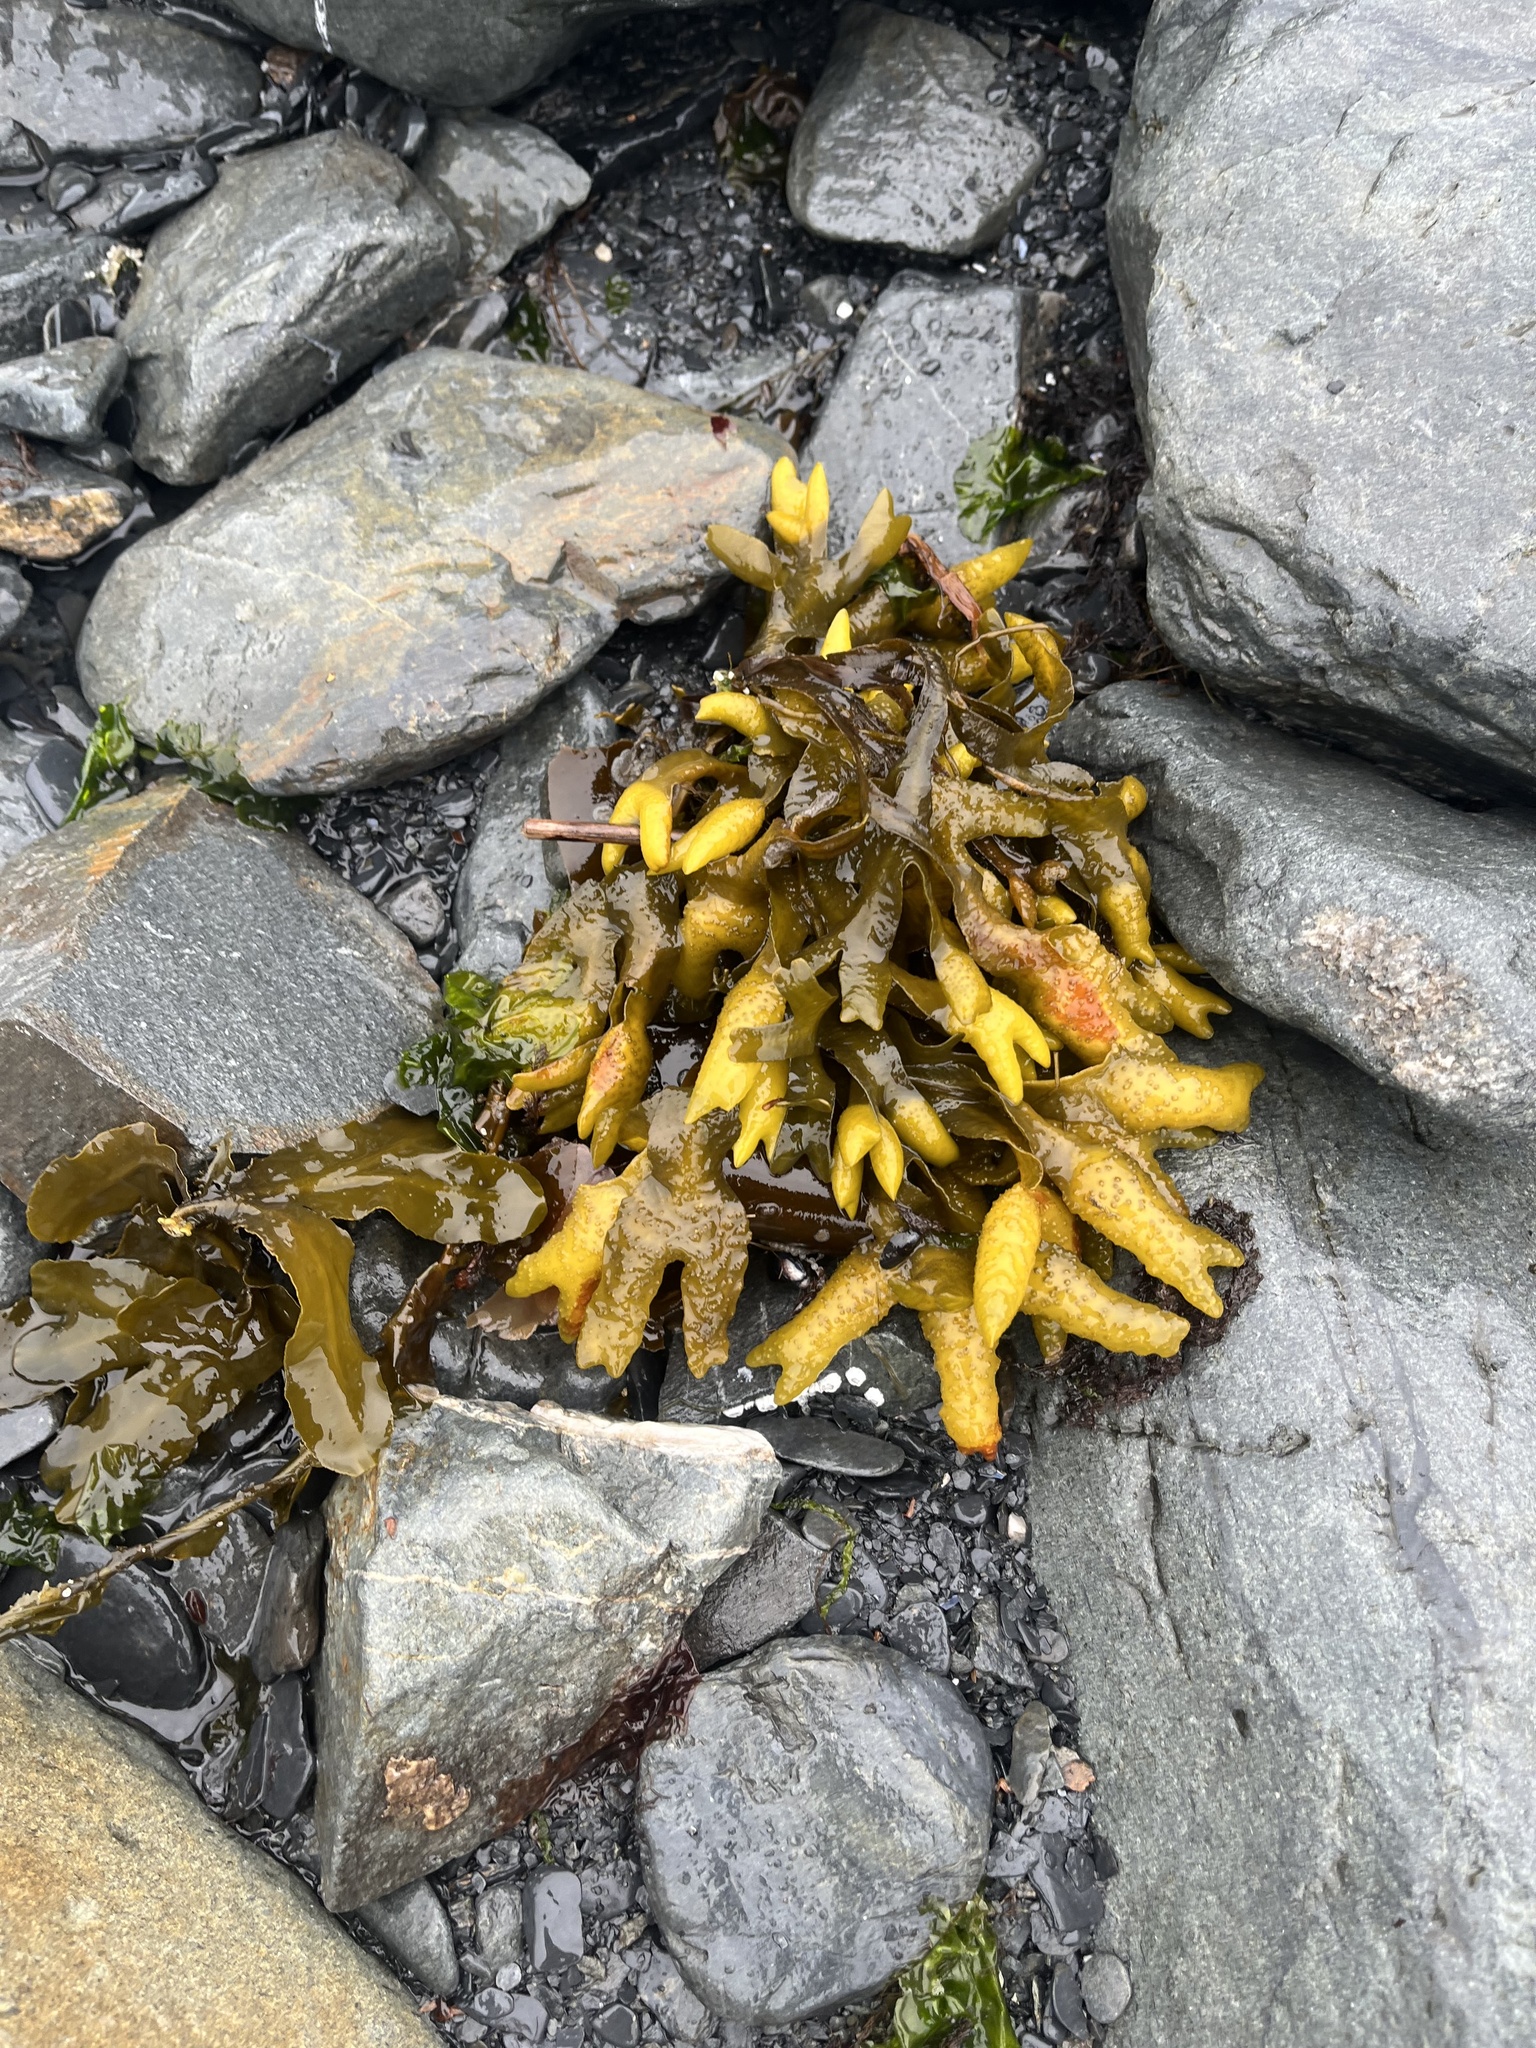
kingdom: Chromista
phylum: Ochrophyta
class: Phaeophyceae
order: Fucales
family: Fucaceae
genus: Fucus
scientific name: Fucus distichus
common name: Rockweed
